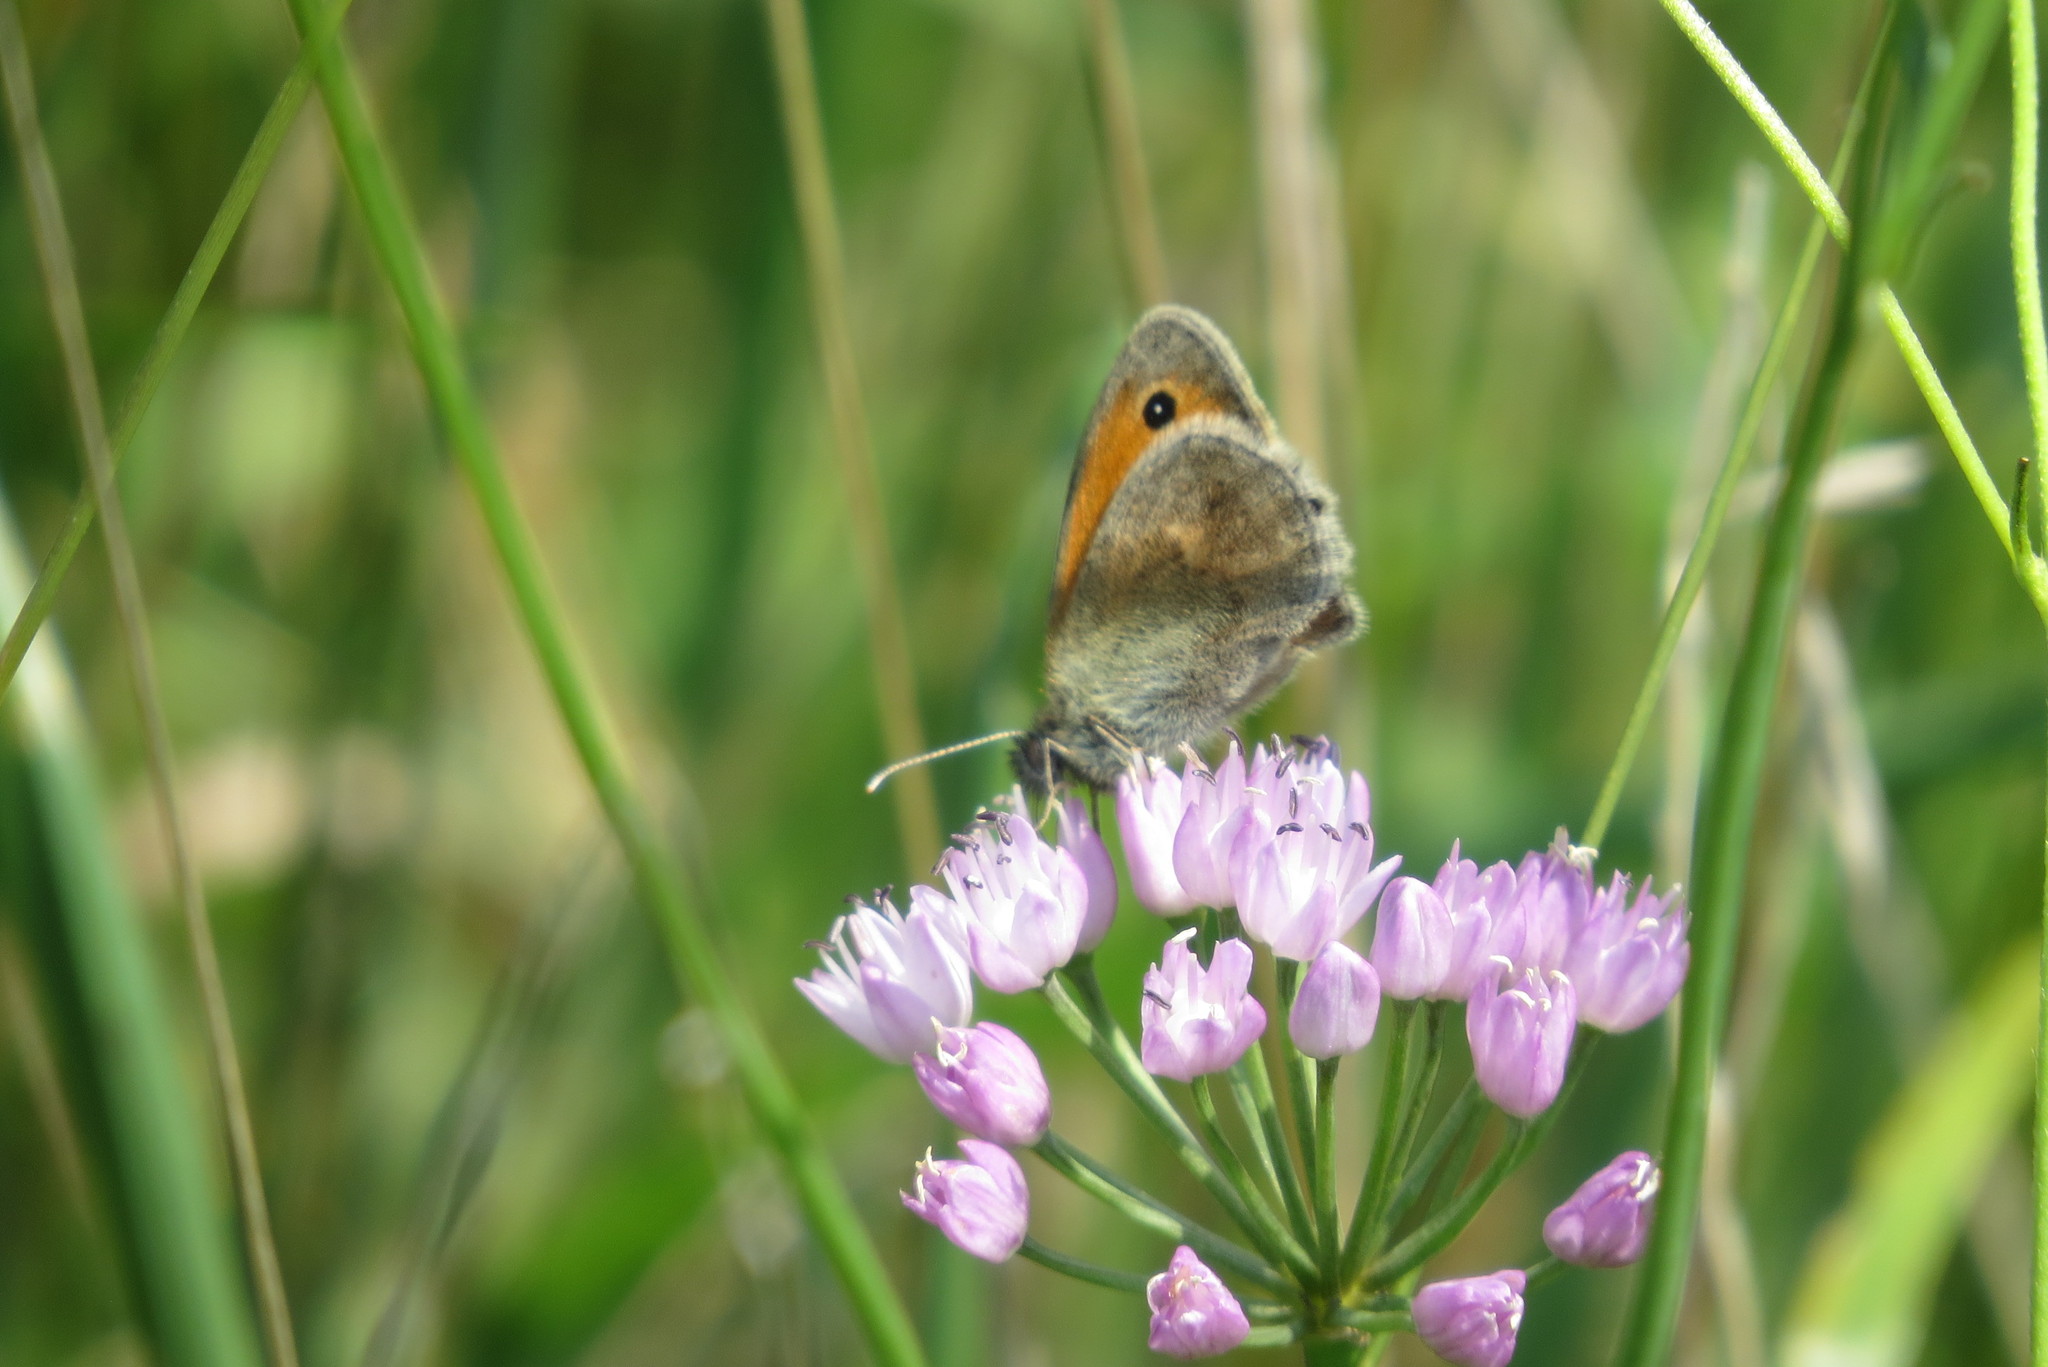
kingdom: Animalia
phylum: Arthropoda
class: Insecta
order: Lepidoptera
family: Nymphalidae
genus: Coenonympha
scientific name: Coenonympha pamphilus
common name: Small heath
